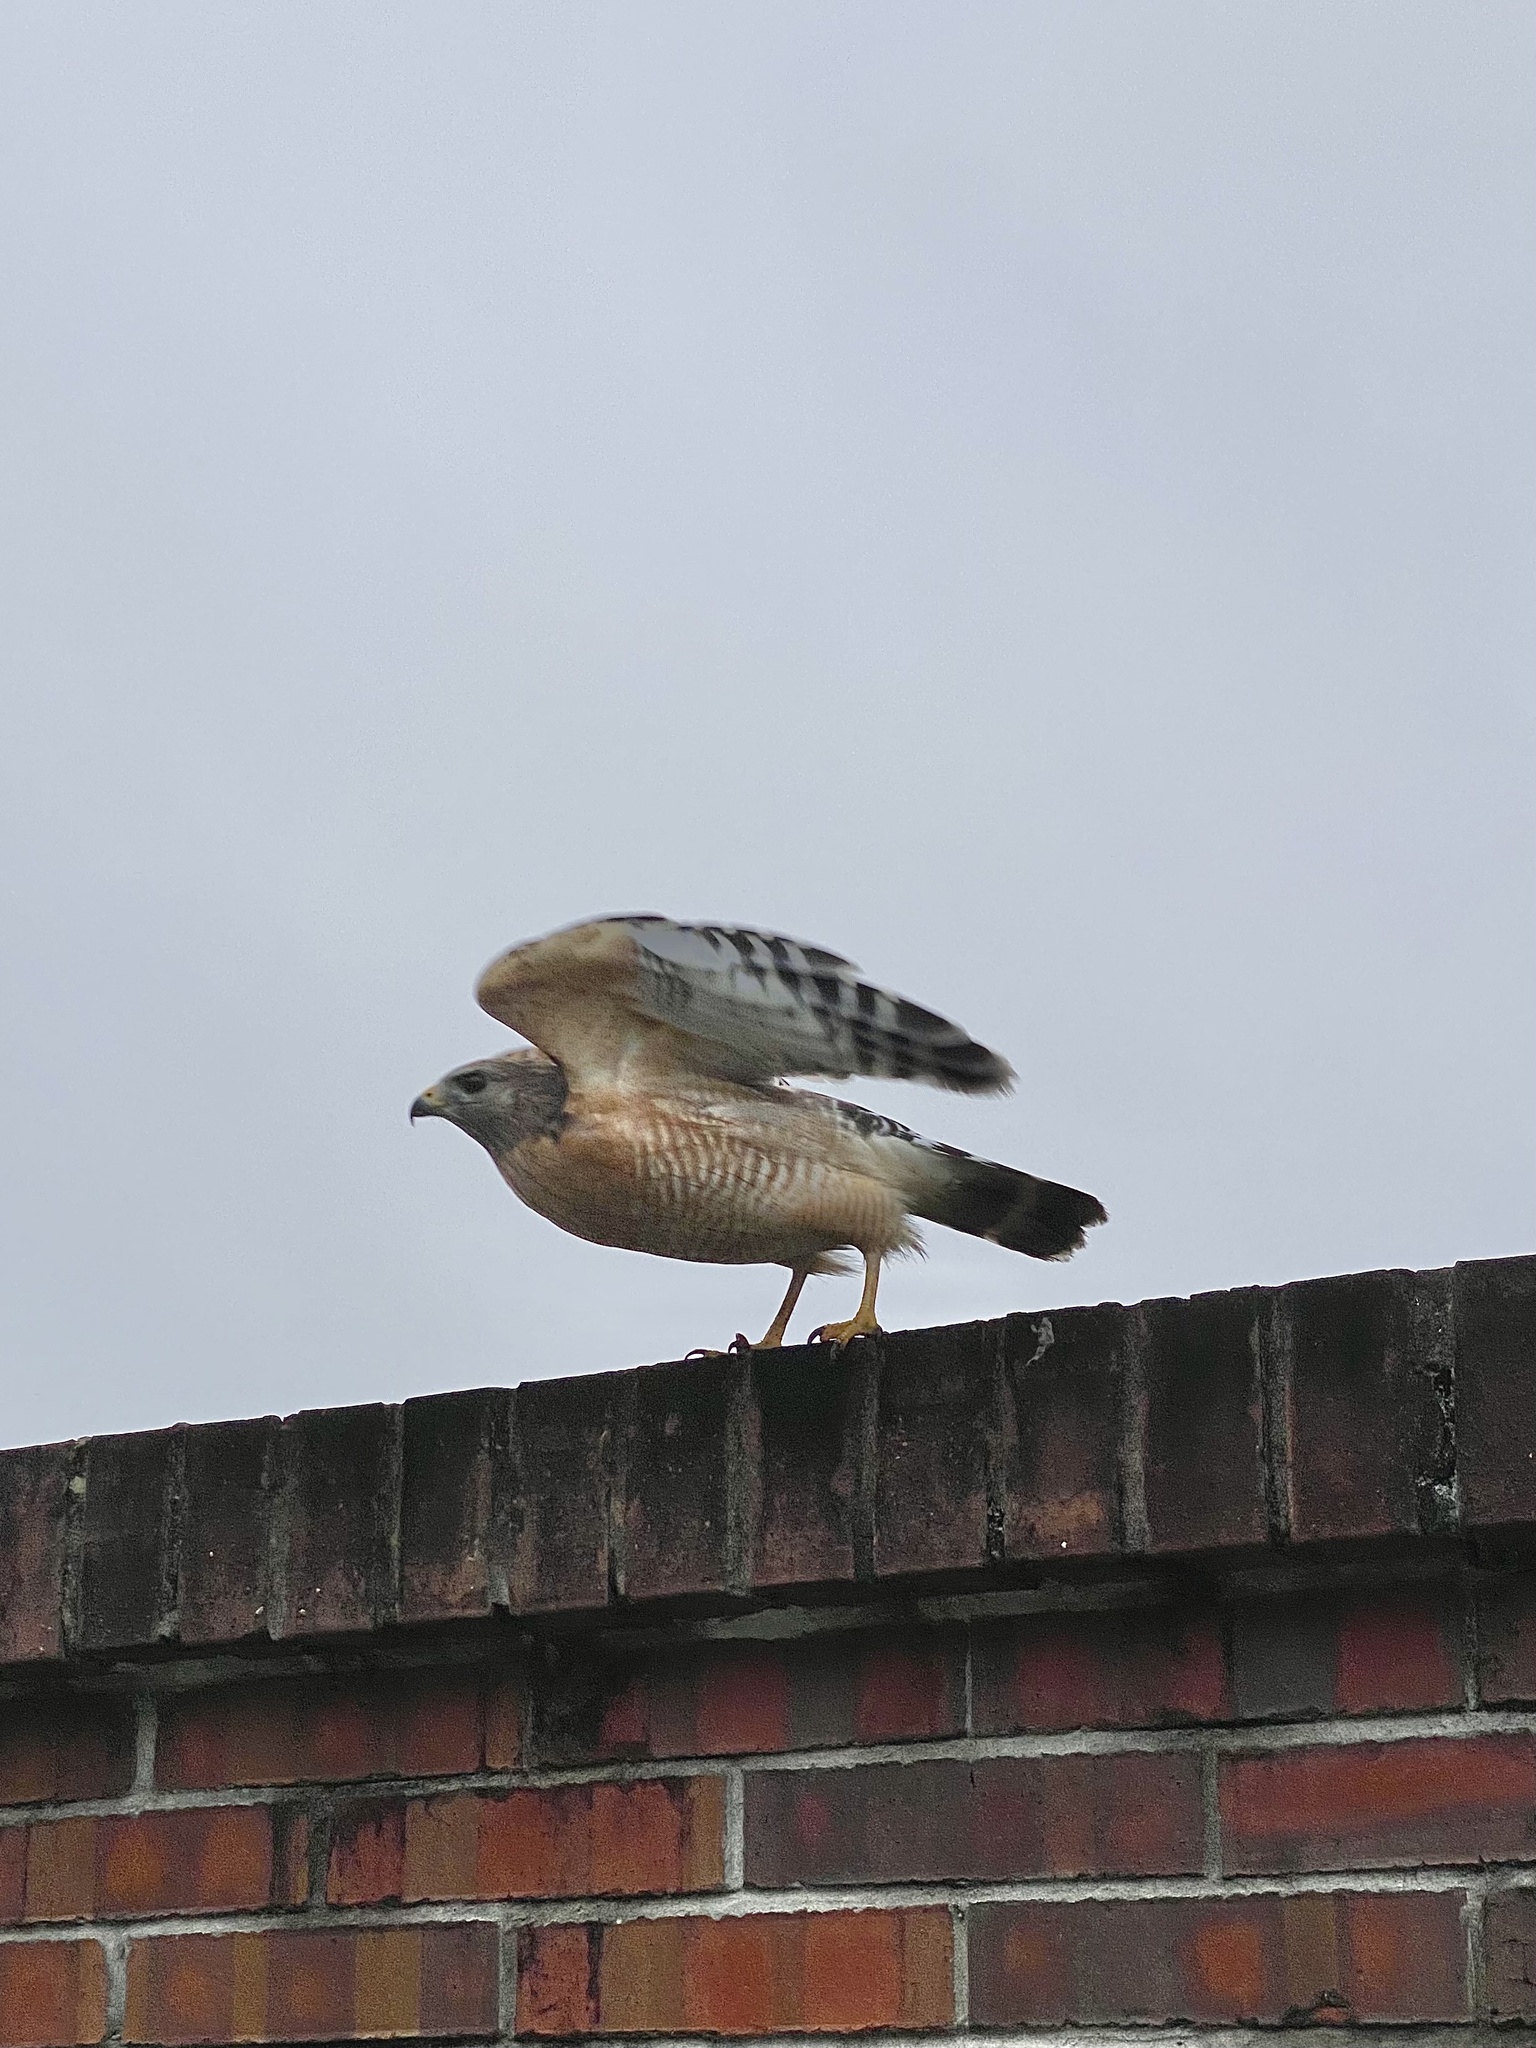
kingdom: Animalia
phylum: Chordata
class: Aves
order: Accipitriformes
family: Accipitridae
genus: Buteo
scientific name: Buteo lineatus
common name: Red-shouldered hawk
